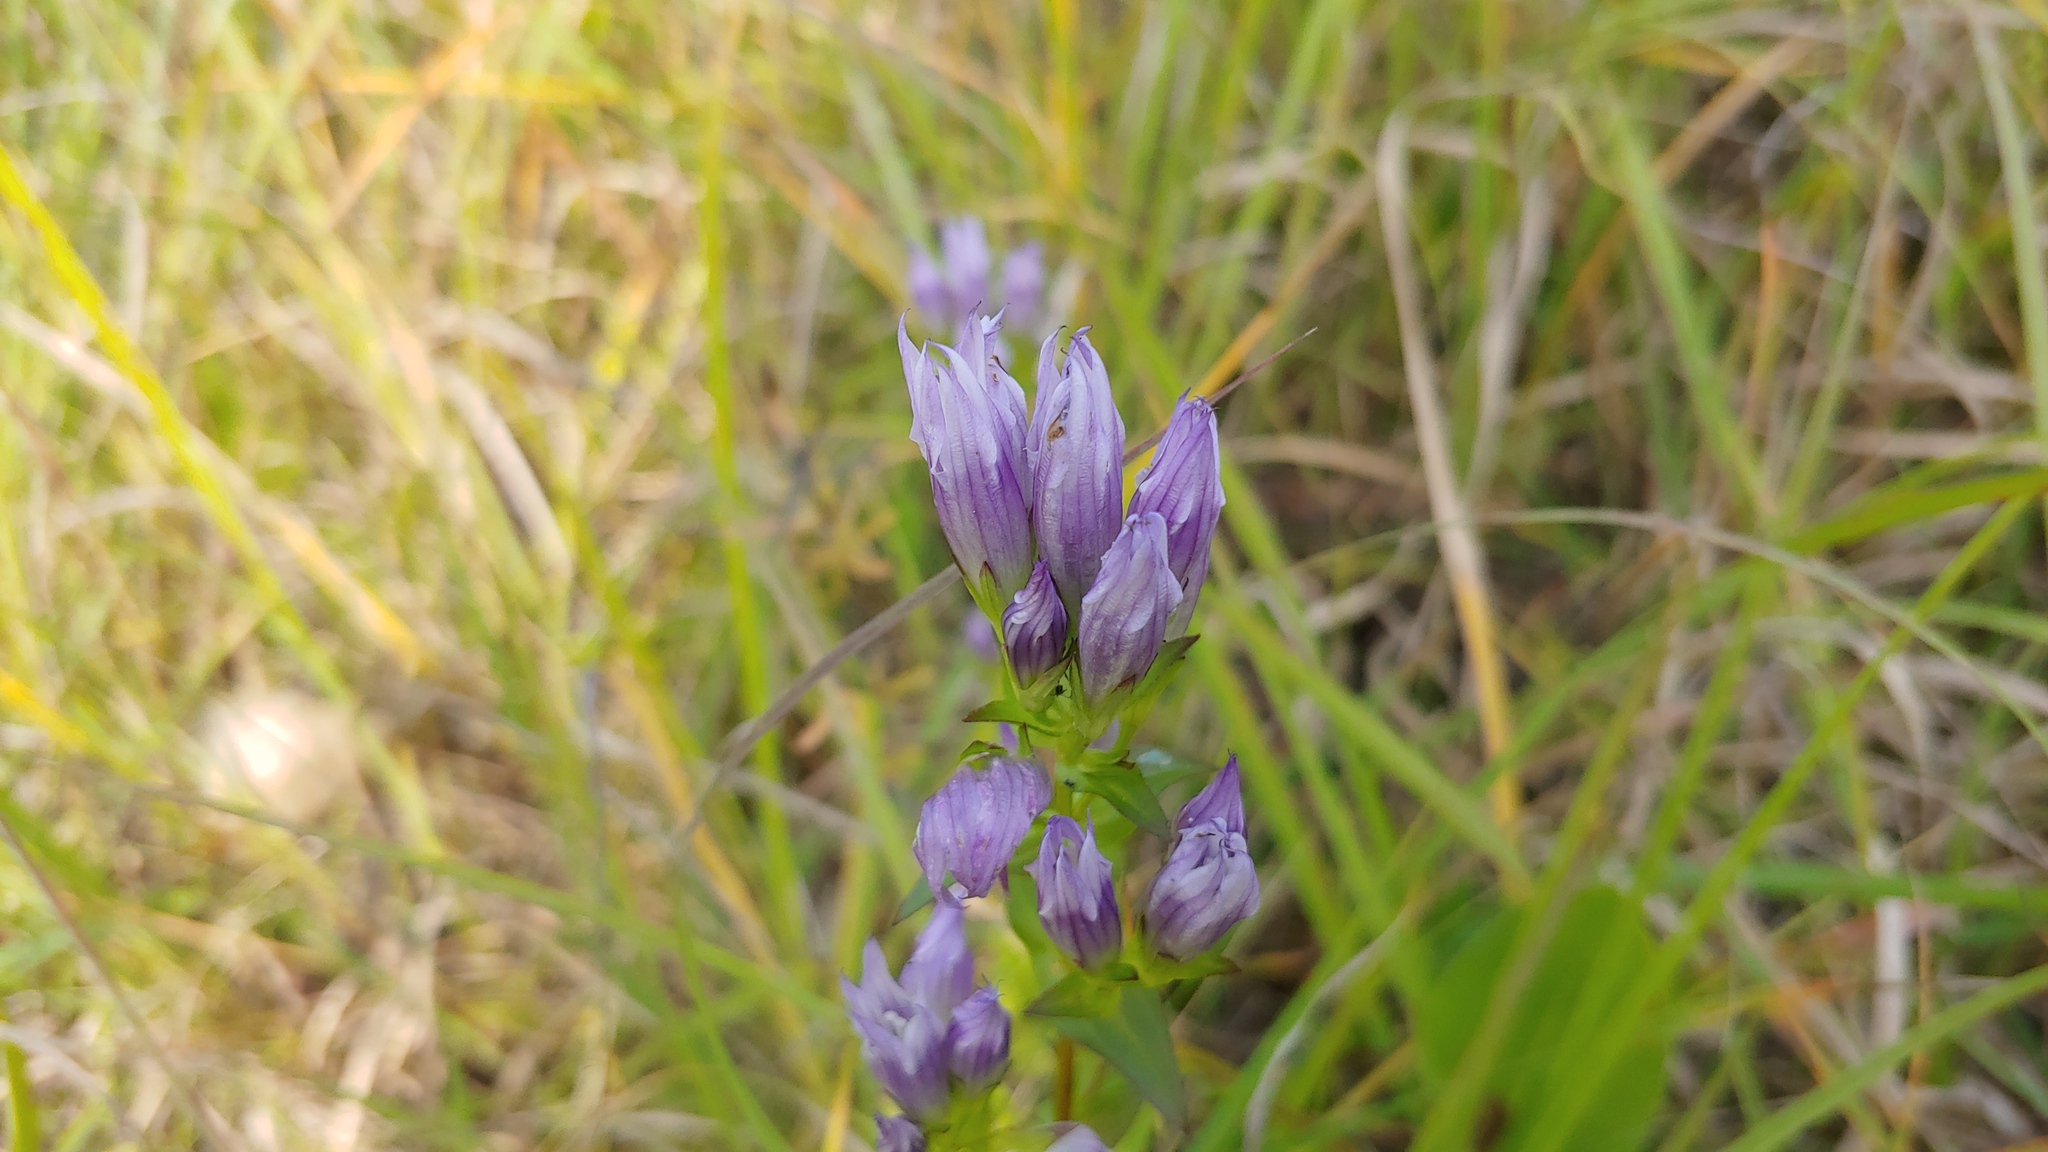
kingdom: Plantae
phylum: Tracheophyta
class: Magnoliopsida
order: Gentianales
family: Gentianaceae
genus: Gentianella
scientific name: Gentianella quinquefolia
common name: Agueweed
